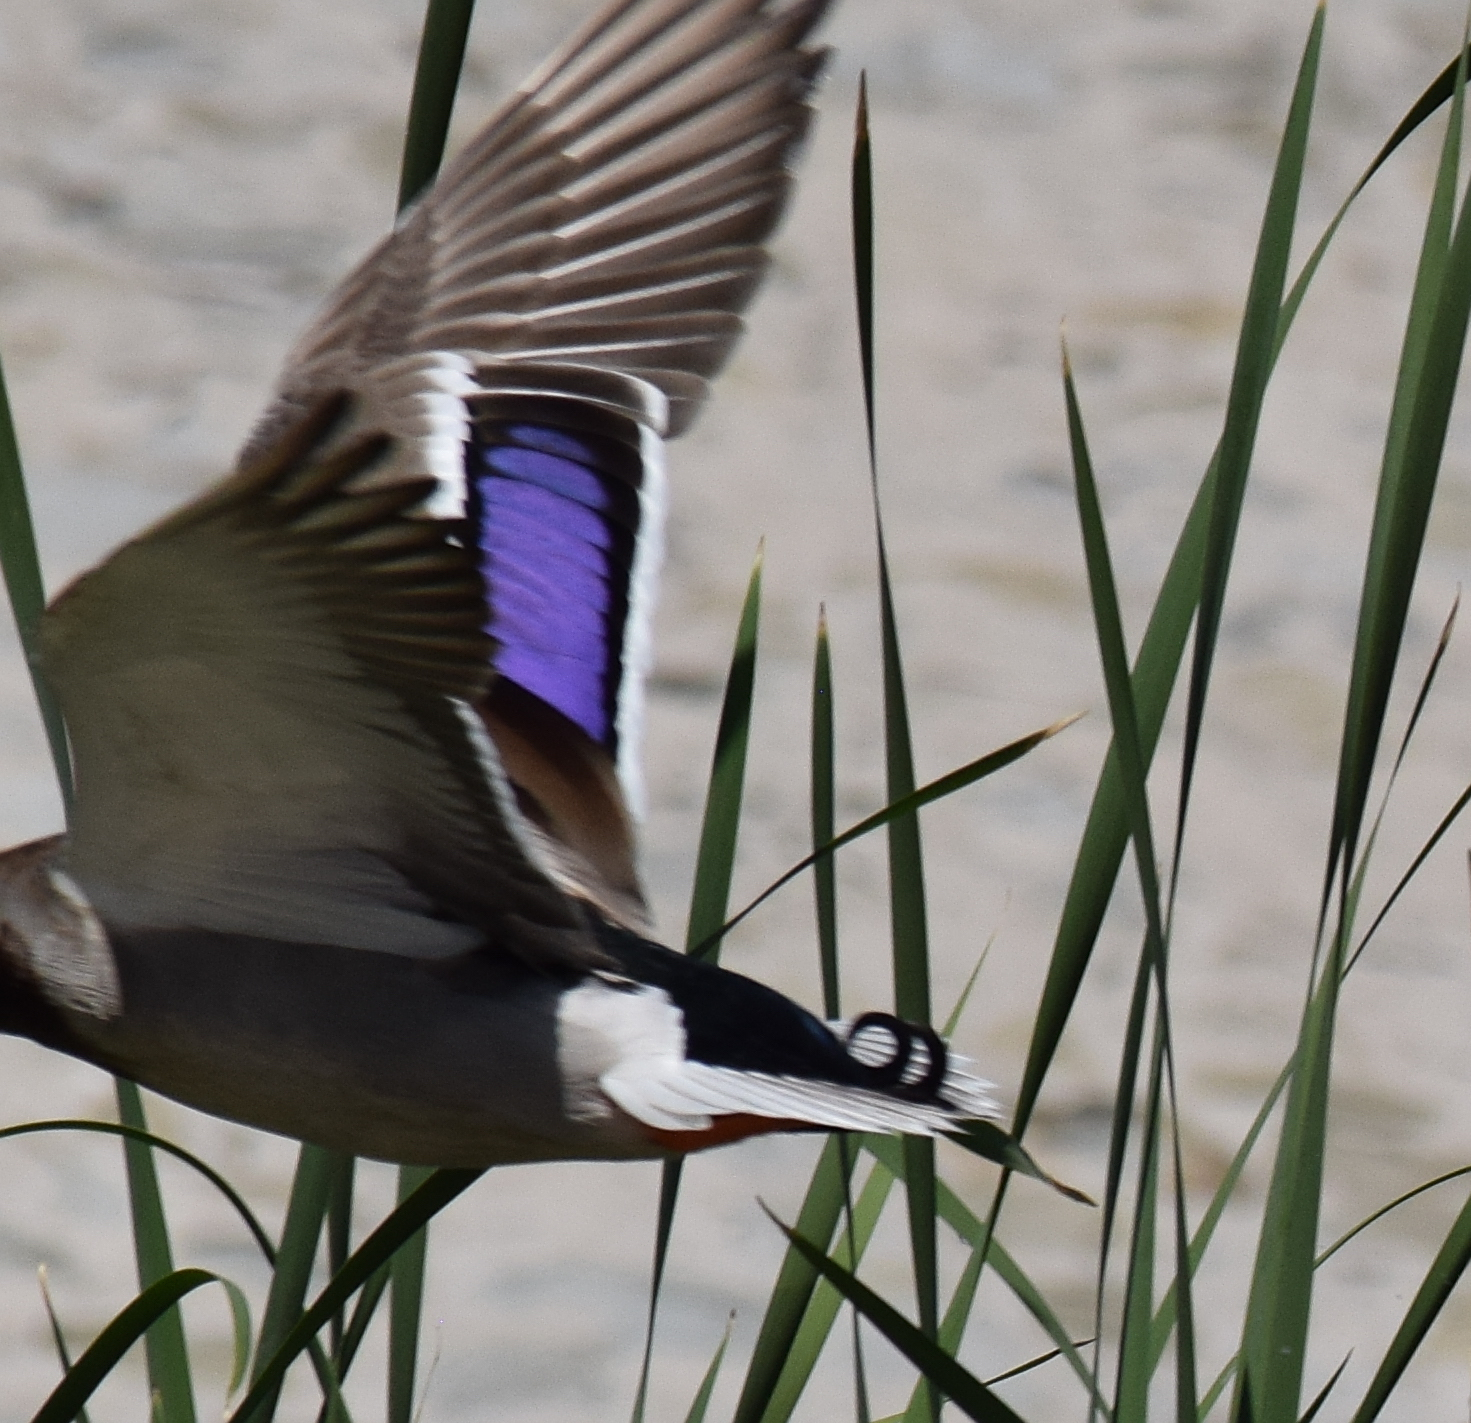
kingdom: Animalia
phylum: Chordata
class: Aves
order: Anseriformes
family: Anatidae
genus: Anas
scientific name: Anas platyrhynchos
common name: Mallard
